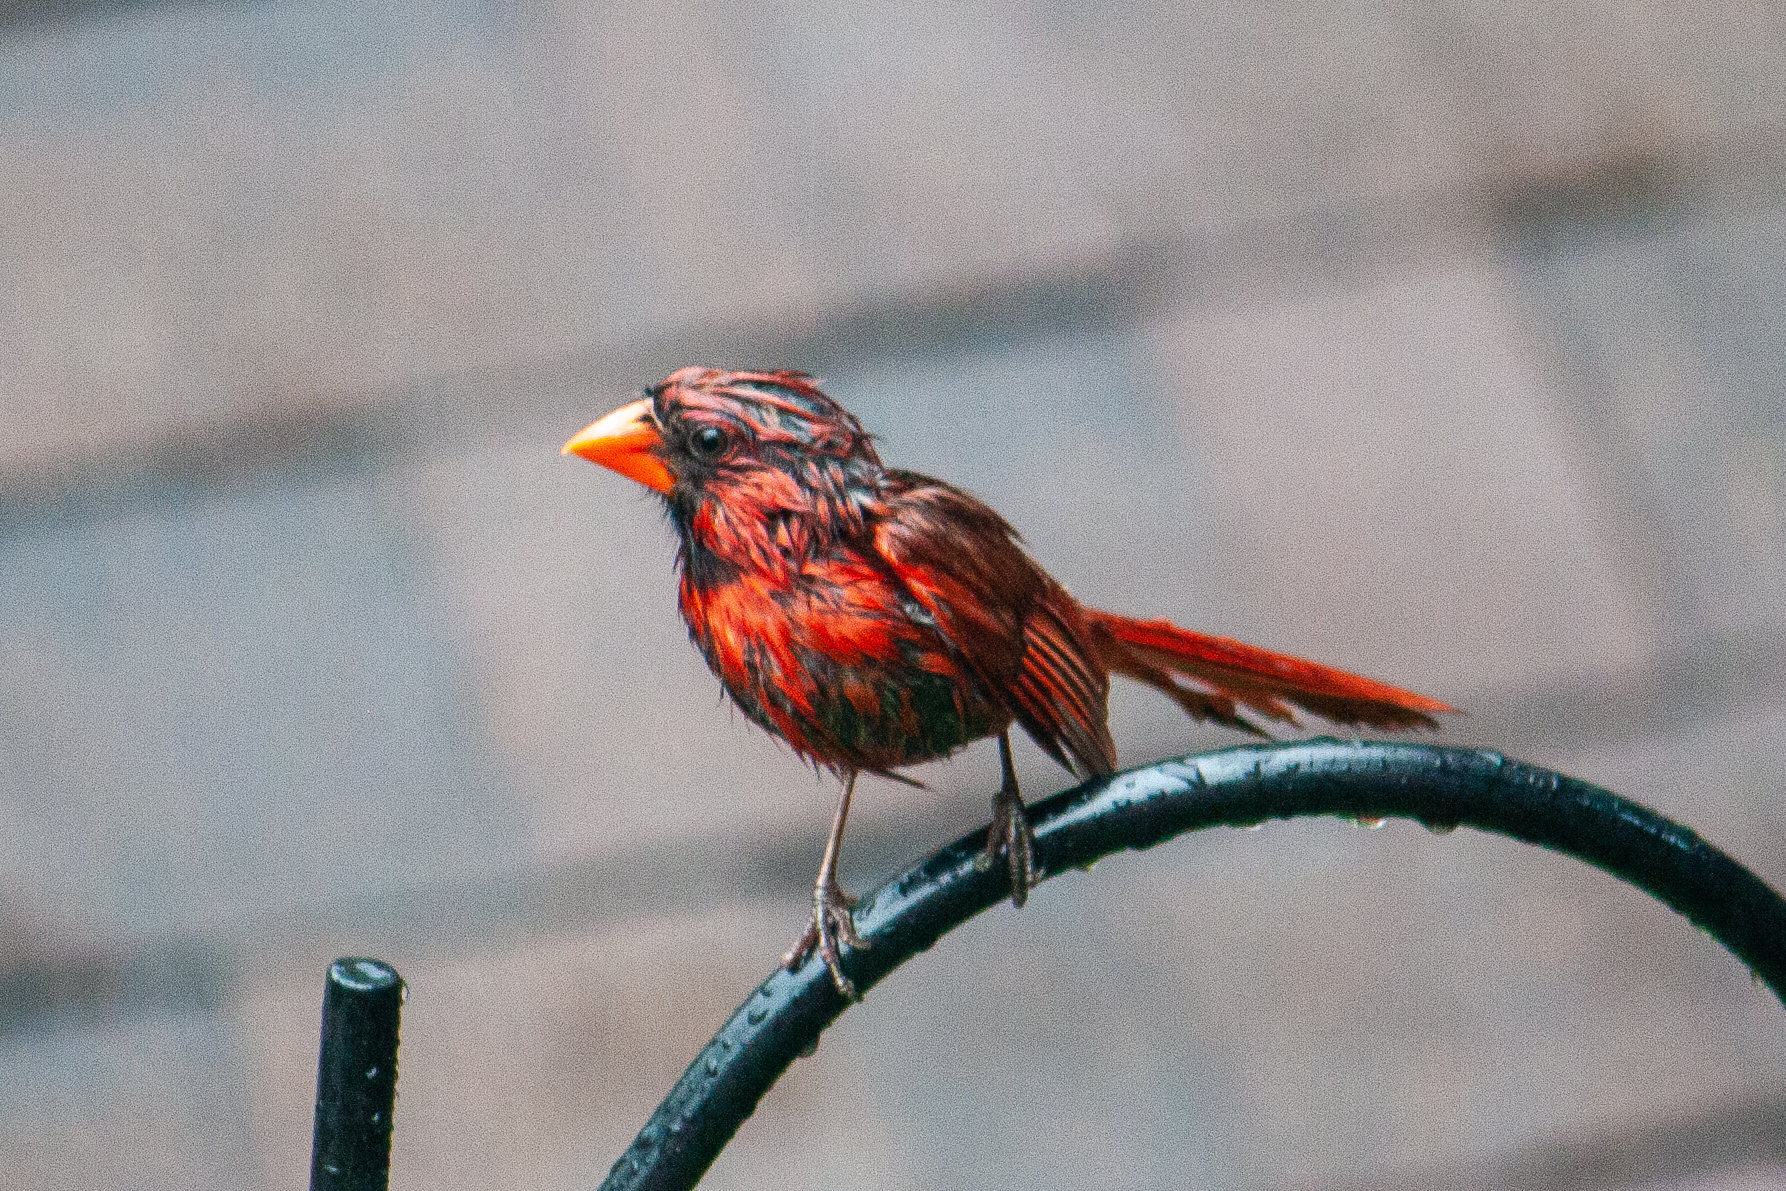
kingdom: Animalia
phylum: Chordata
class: Aves
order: Passeriformes
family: Cardinalidae
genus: Cardinalis
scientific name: Cardinalis cardinalis
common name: Northern cardinal
